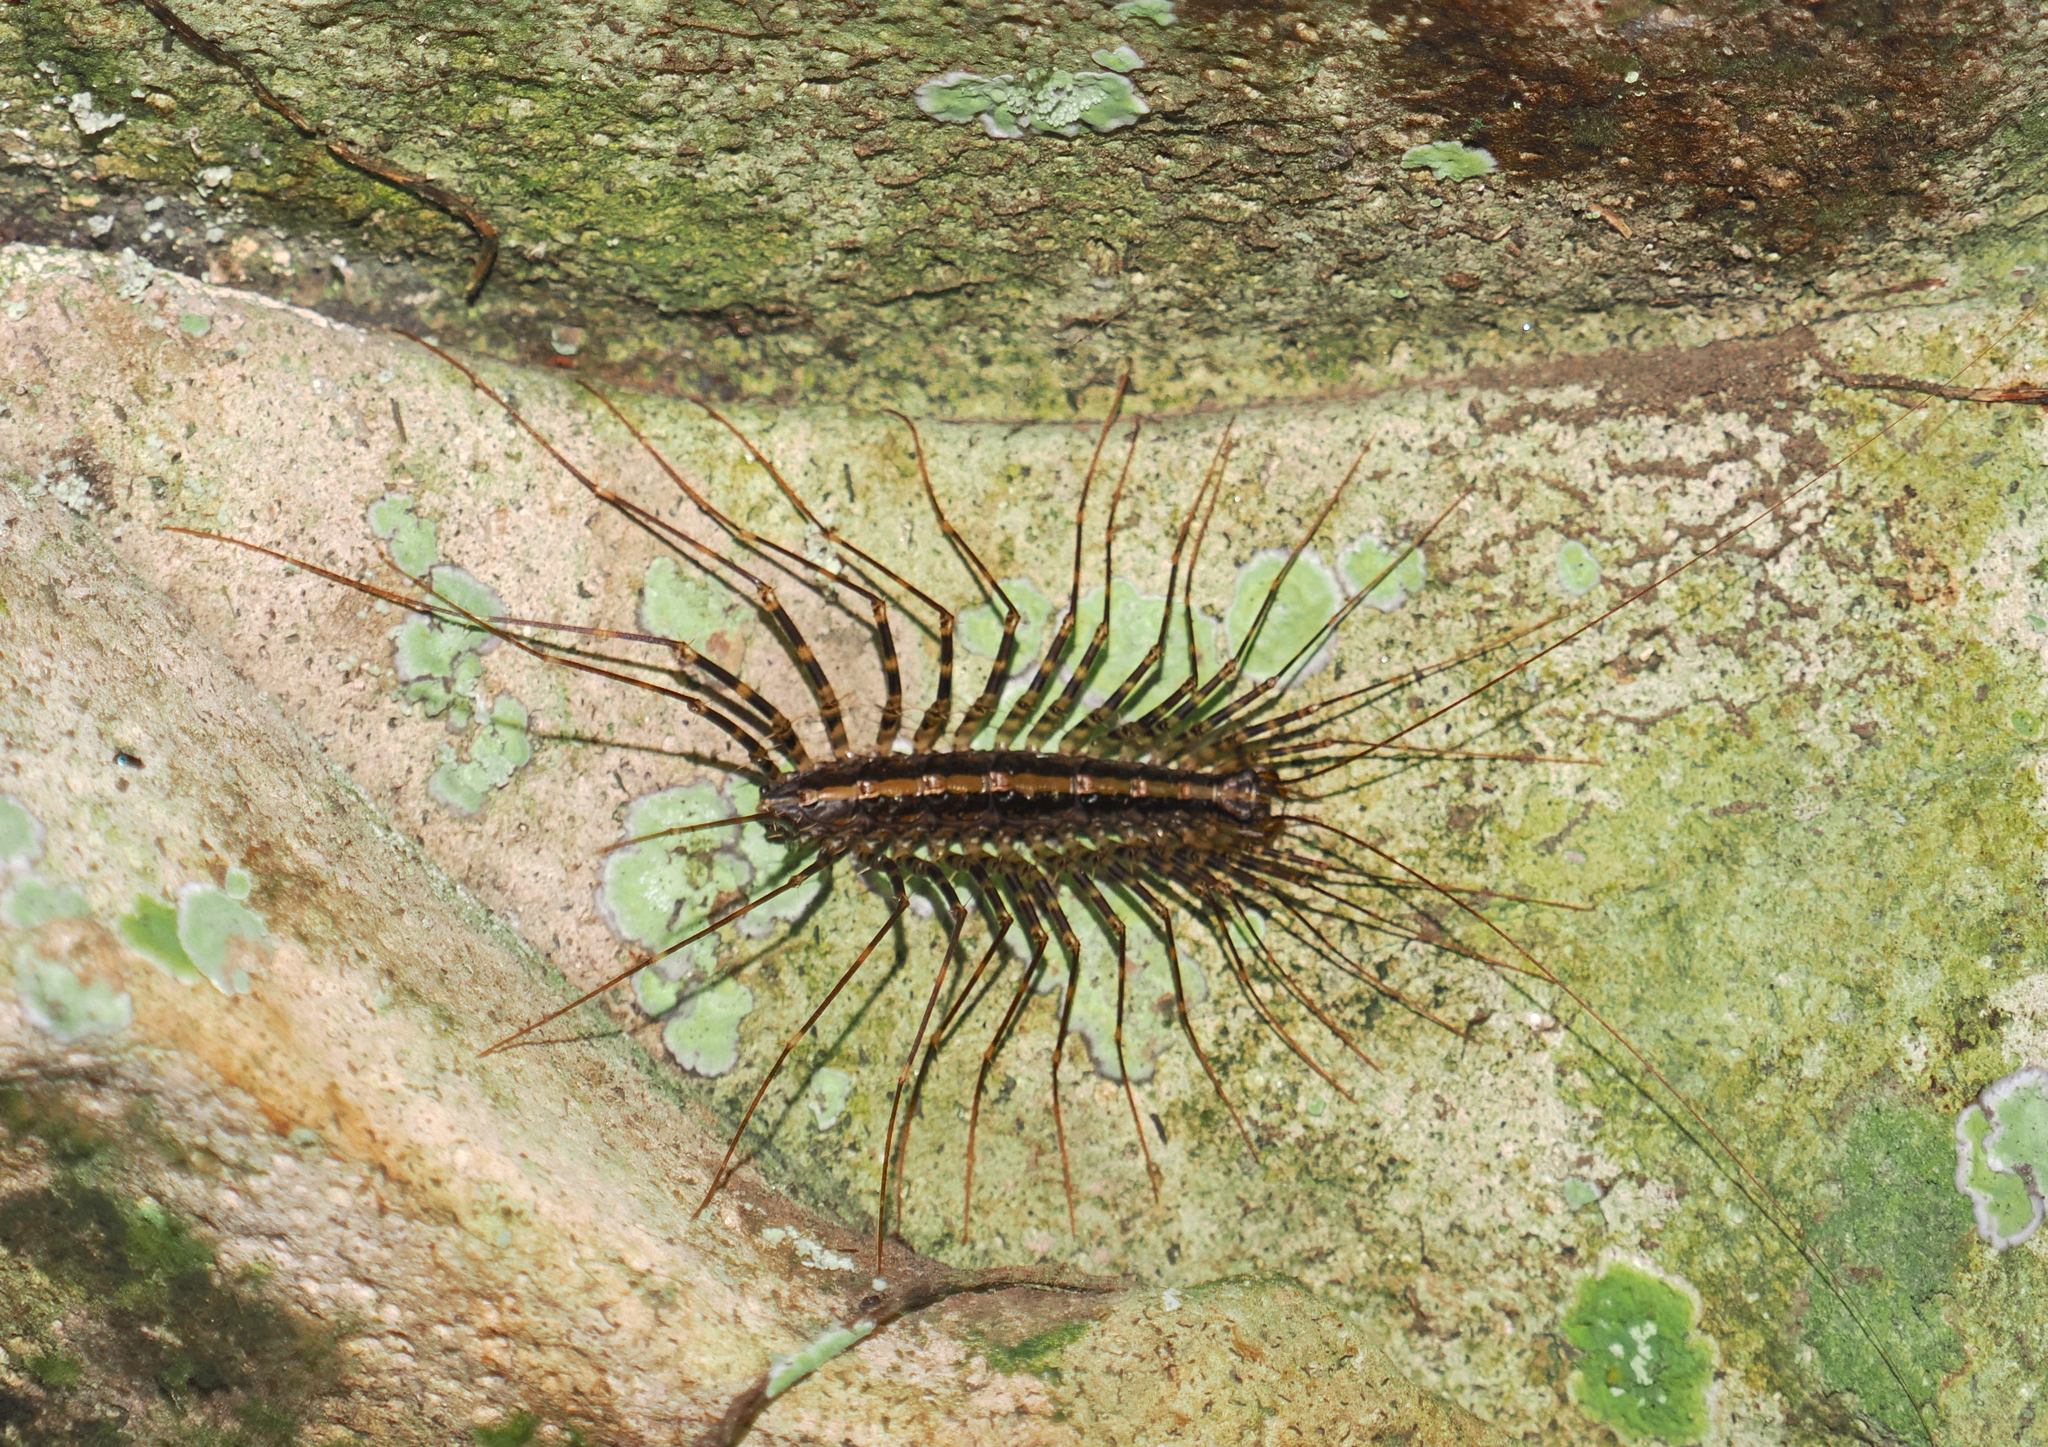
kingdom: Animalia
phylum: Arthropoda
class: Chilopoda
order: Scutigeromorpha
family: Pselliodidae
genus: Sphendononema
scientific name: Sphendononema guildingii
